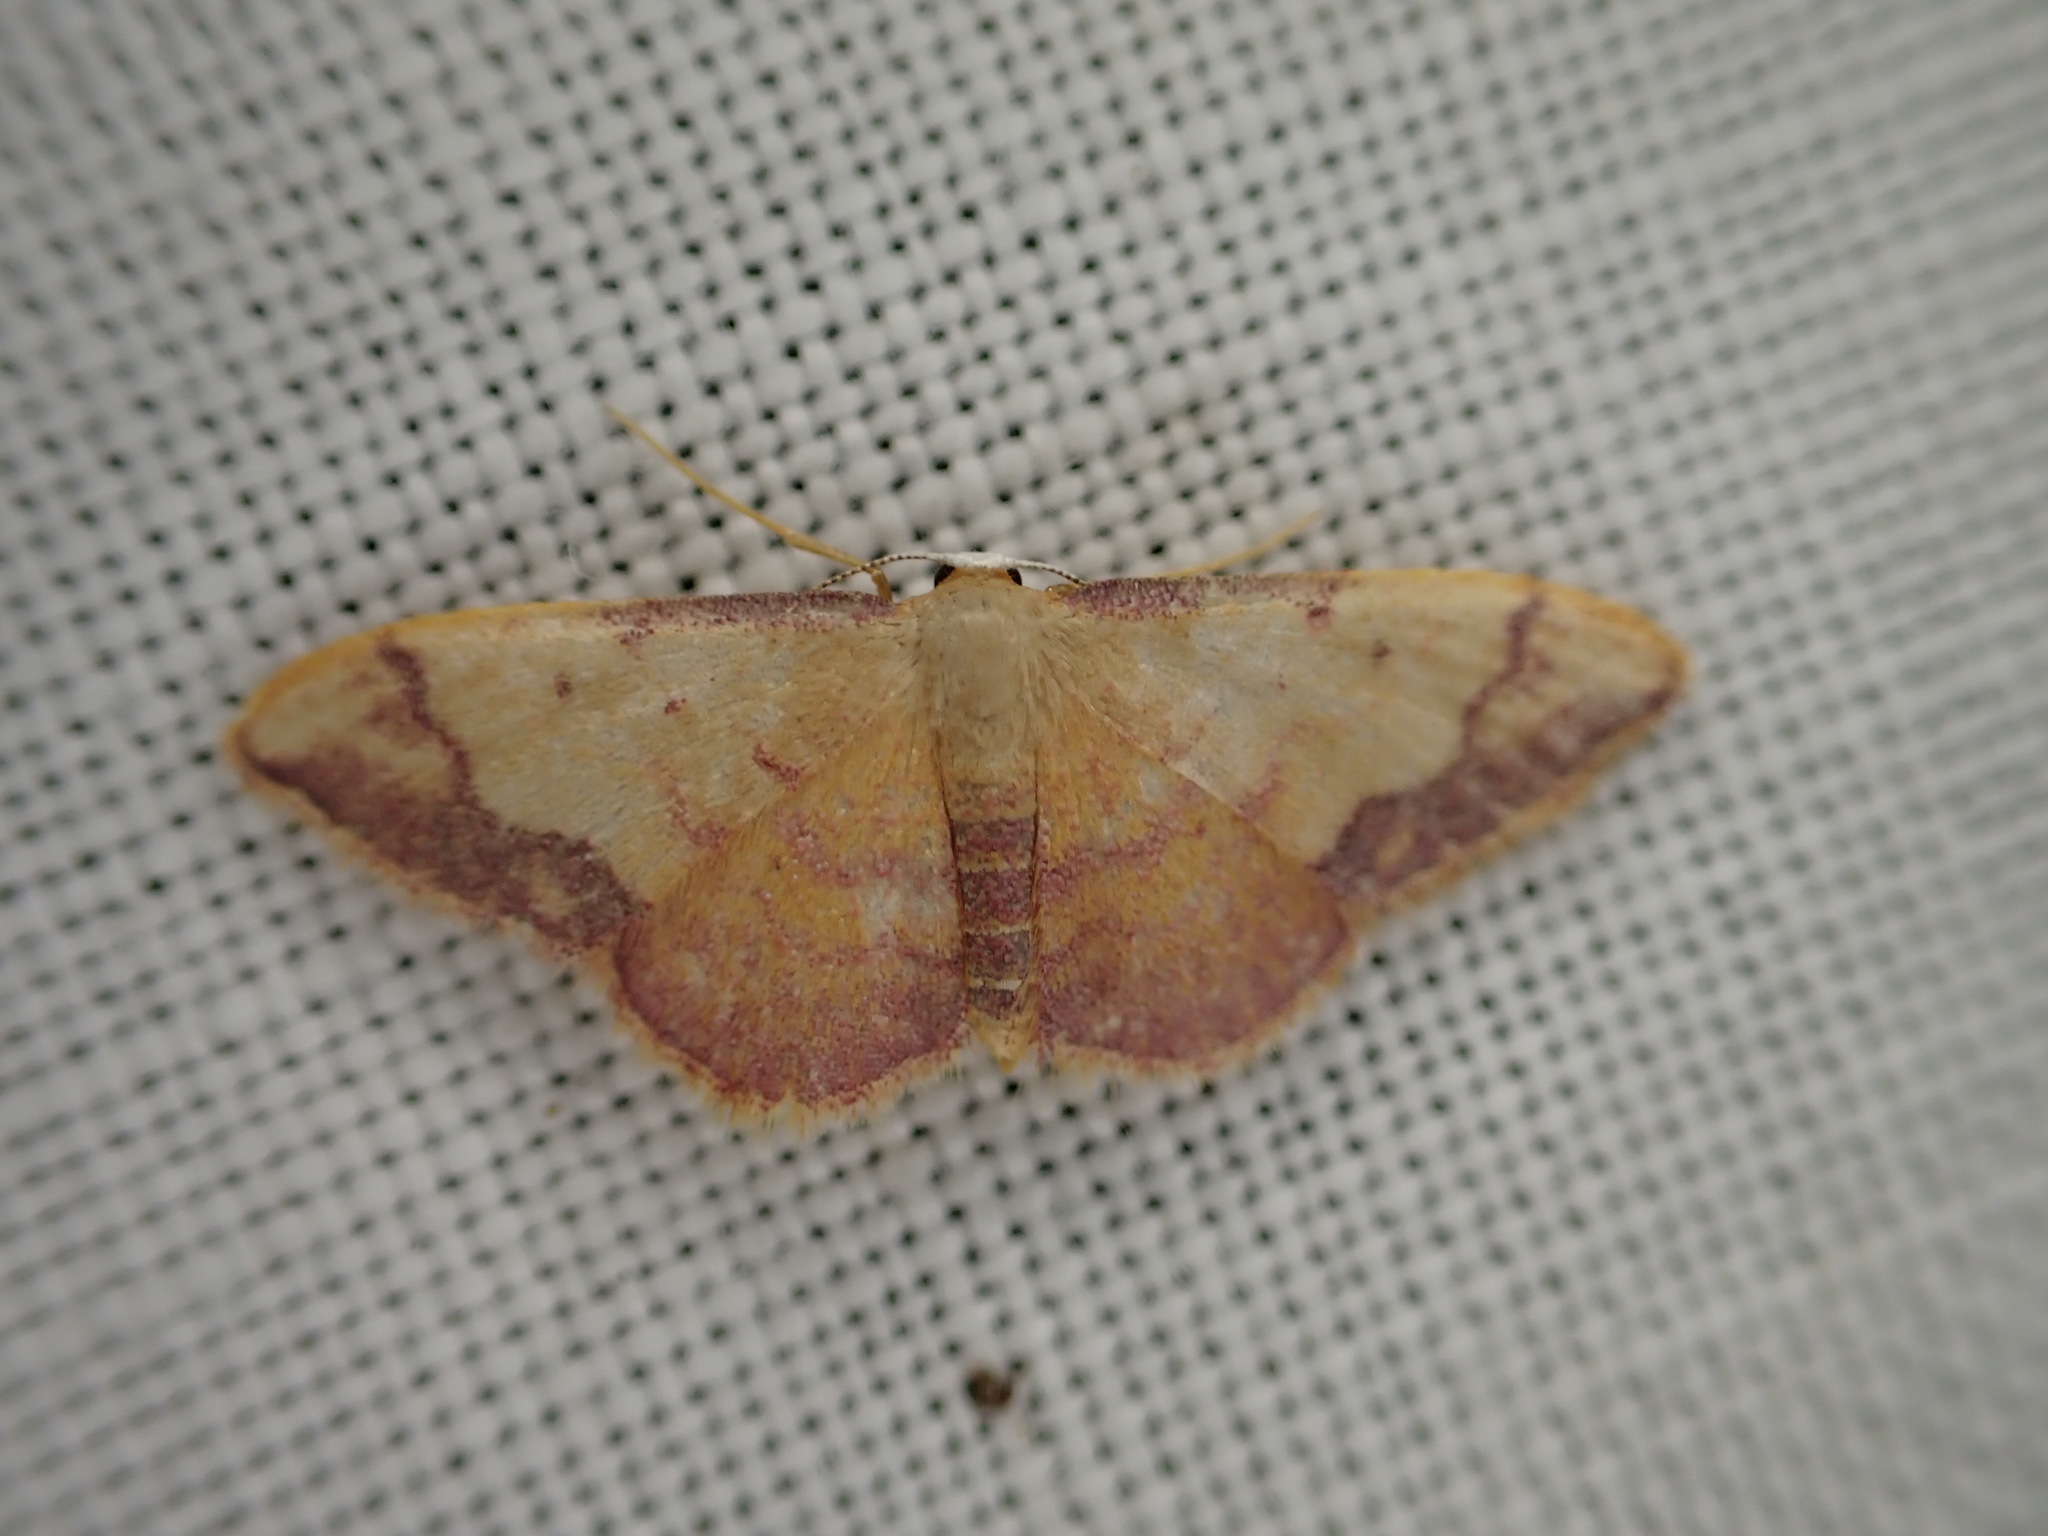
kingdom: Animalia
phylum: Arthropoda
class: Insecta
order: Lepidoptera
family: Geometridae
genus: Idaea
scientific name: Idaea ostrinaria
